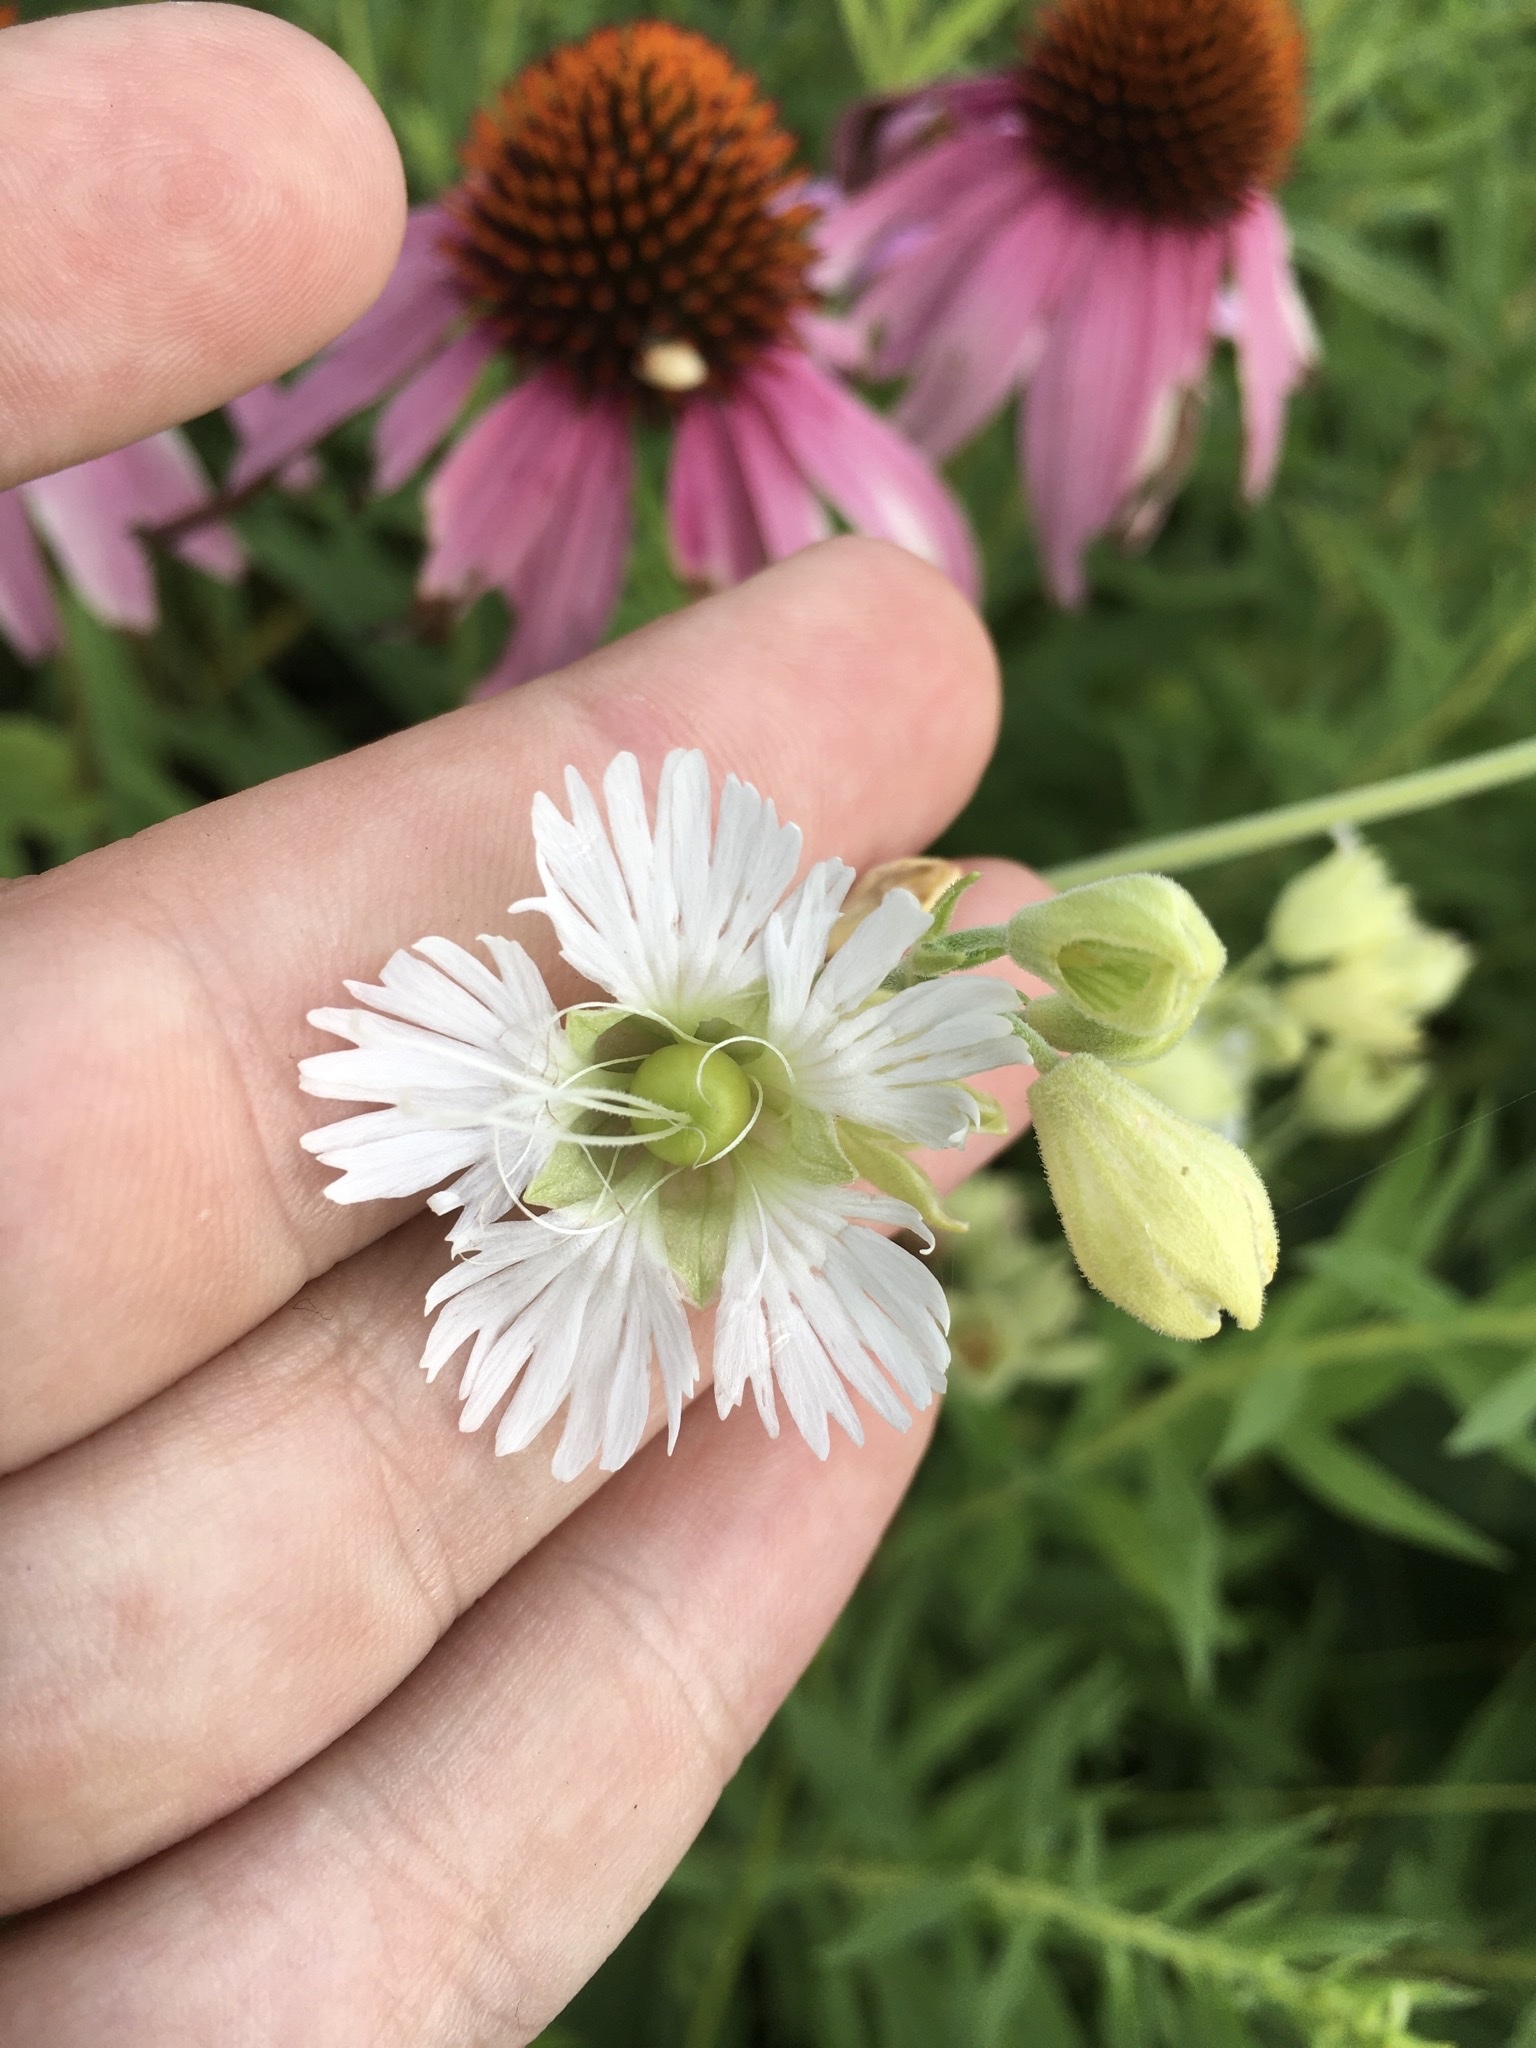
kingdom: Plantae
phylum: Tracheophyta
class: Magnoliopsida
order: Caryophyllales
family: Caryophyllaceae
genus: Silene
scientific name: Silene stellata
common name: Starry campion
